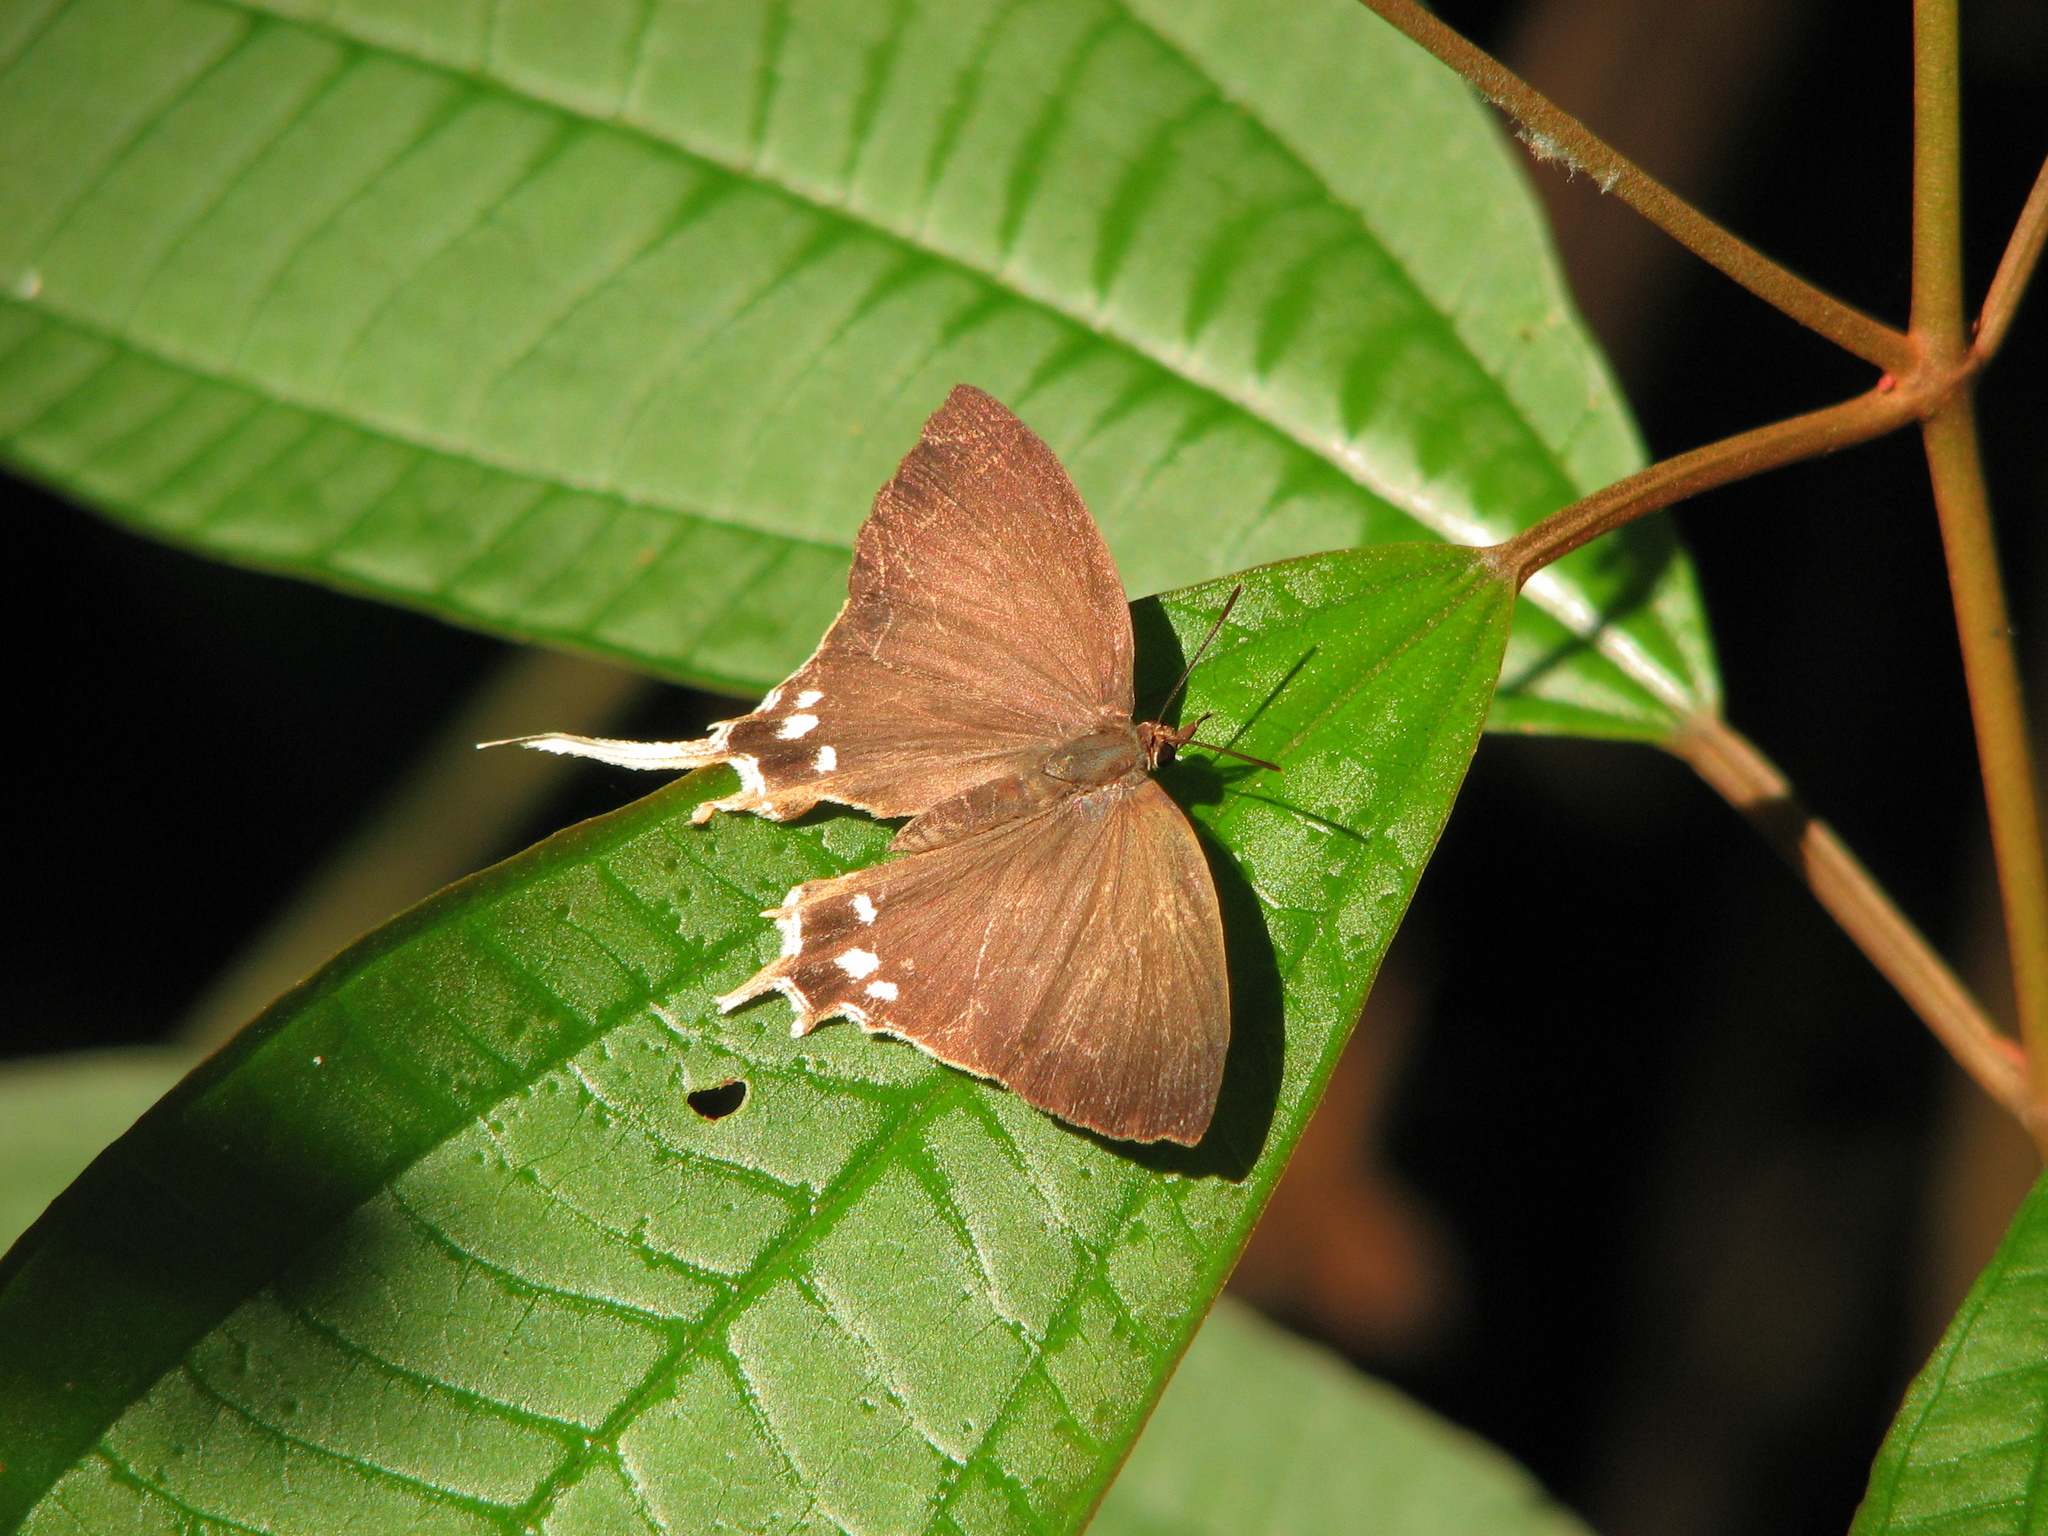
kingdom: Animalia
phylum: Arthropoda
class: Insecta
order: Lepidoptera
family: Lycaenidae
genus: Ticherra
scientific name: Ticherra acte
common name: Blue imperial
